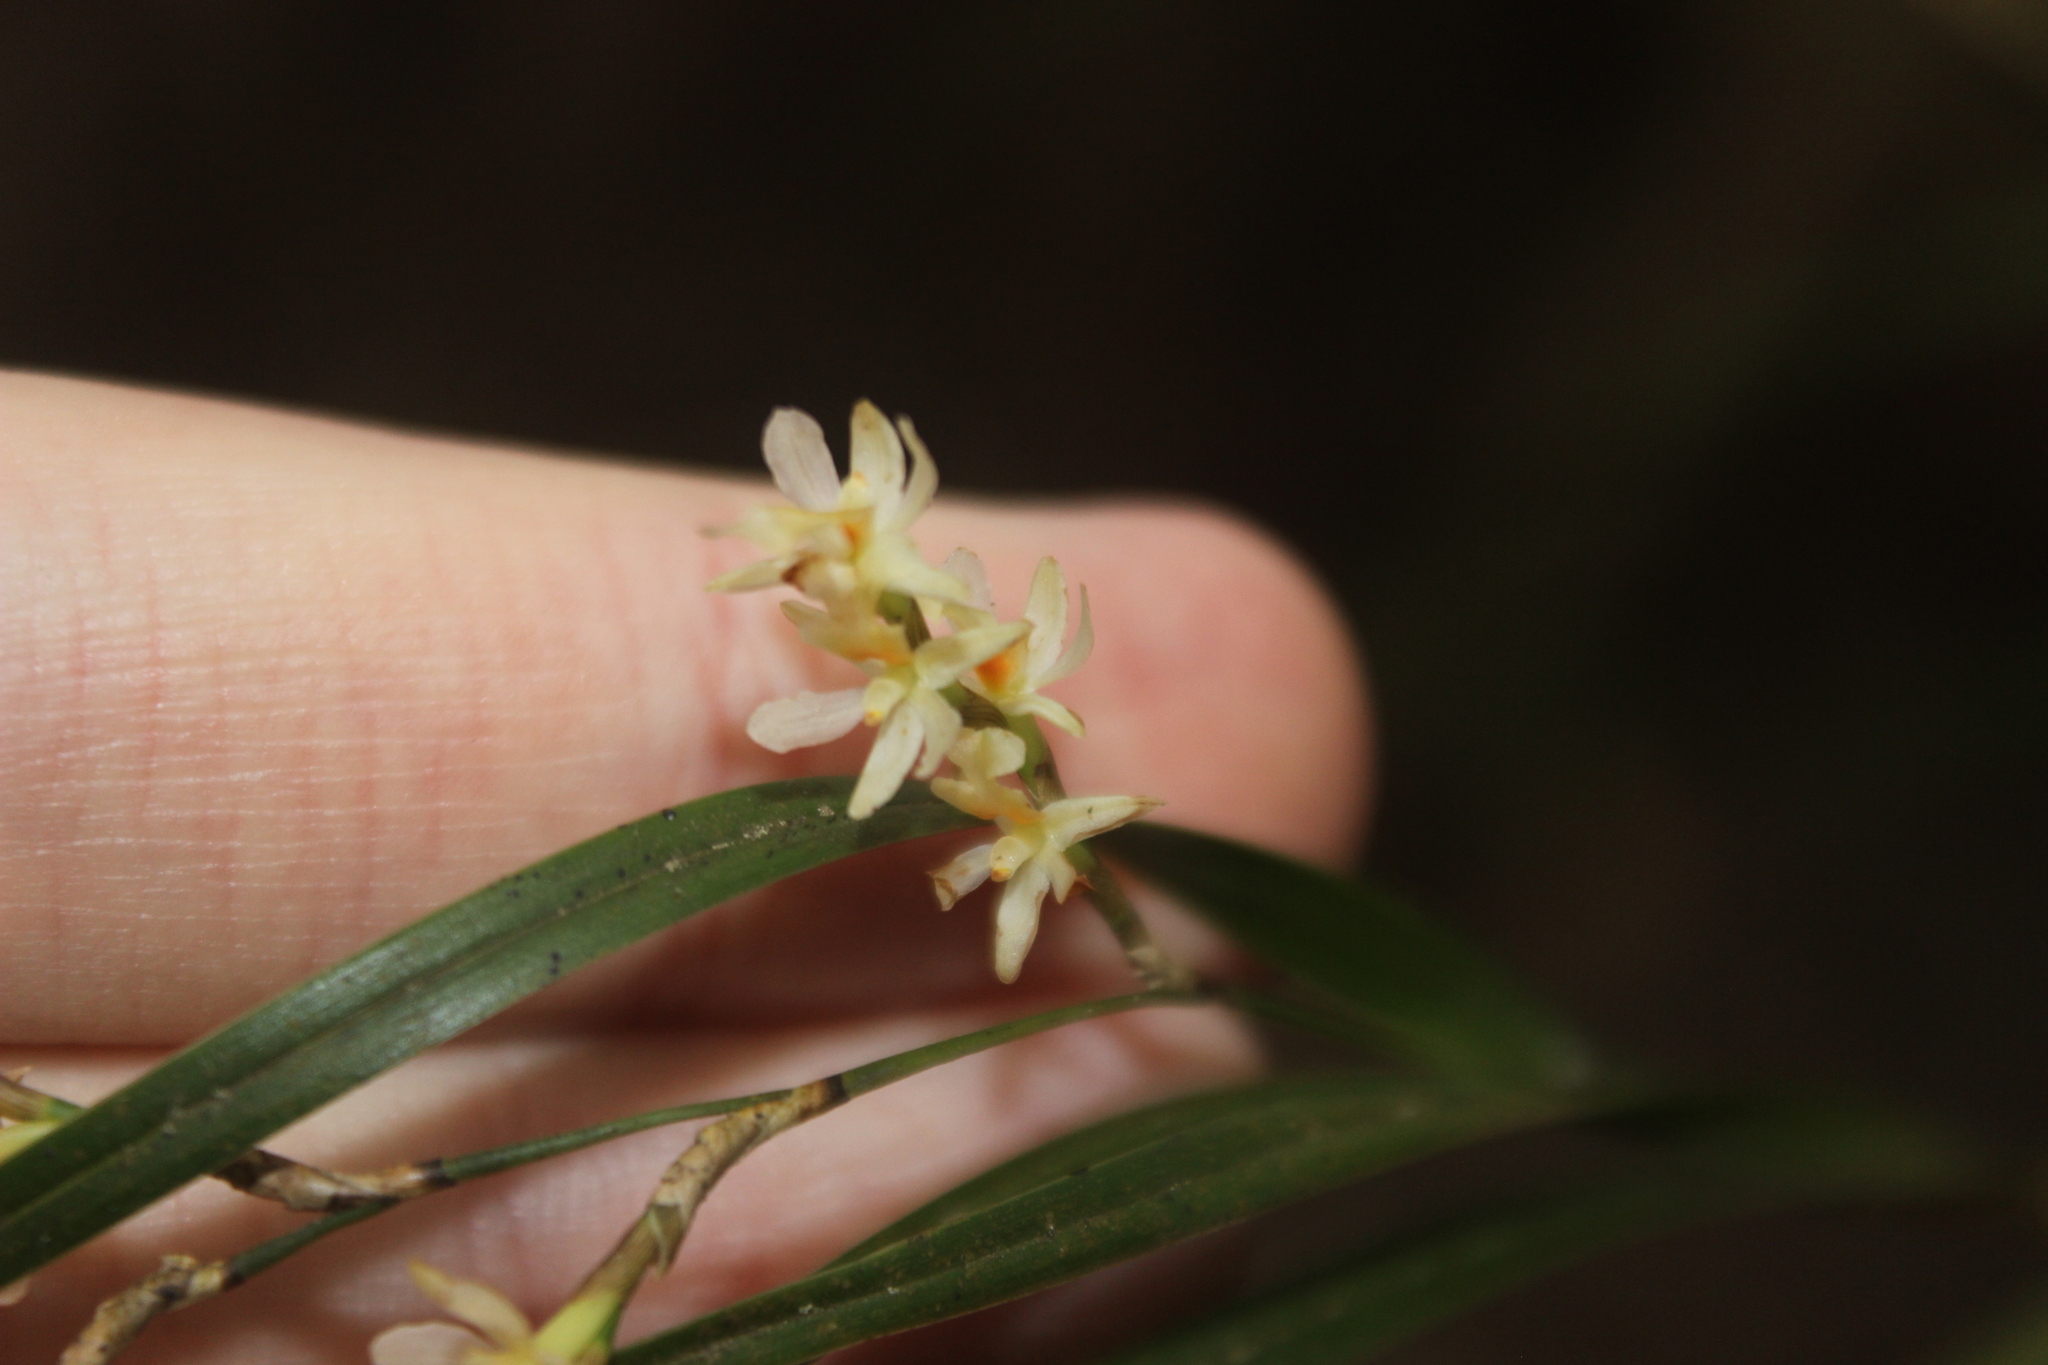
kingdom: Plantae
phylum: Tracheophyta
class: Liliopsida
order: Asparagales
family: Orchidaceae
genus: Earina
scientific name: Earina mucronata
